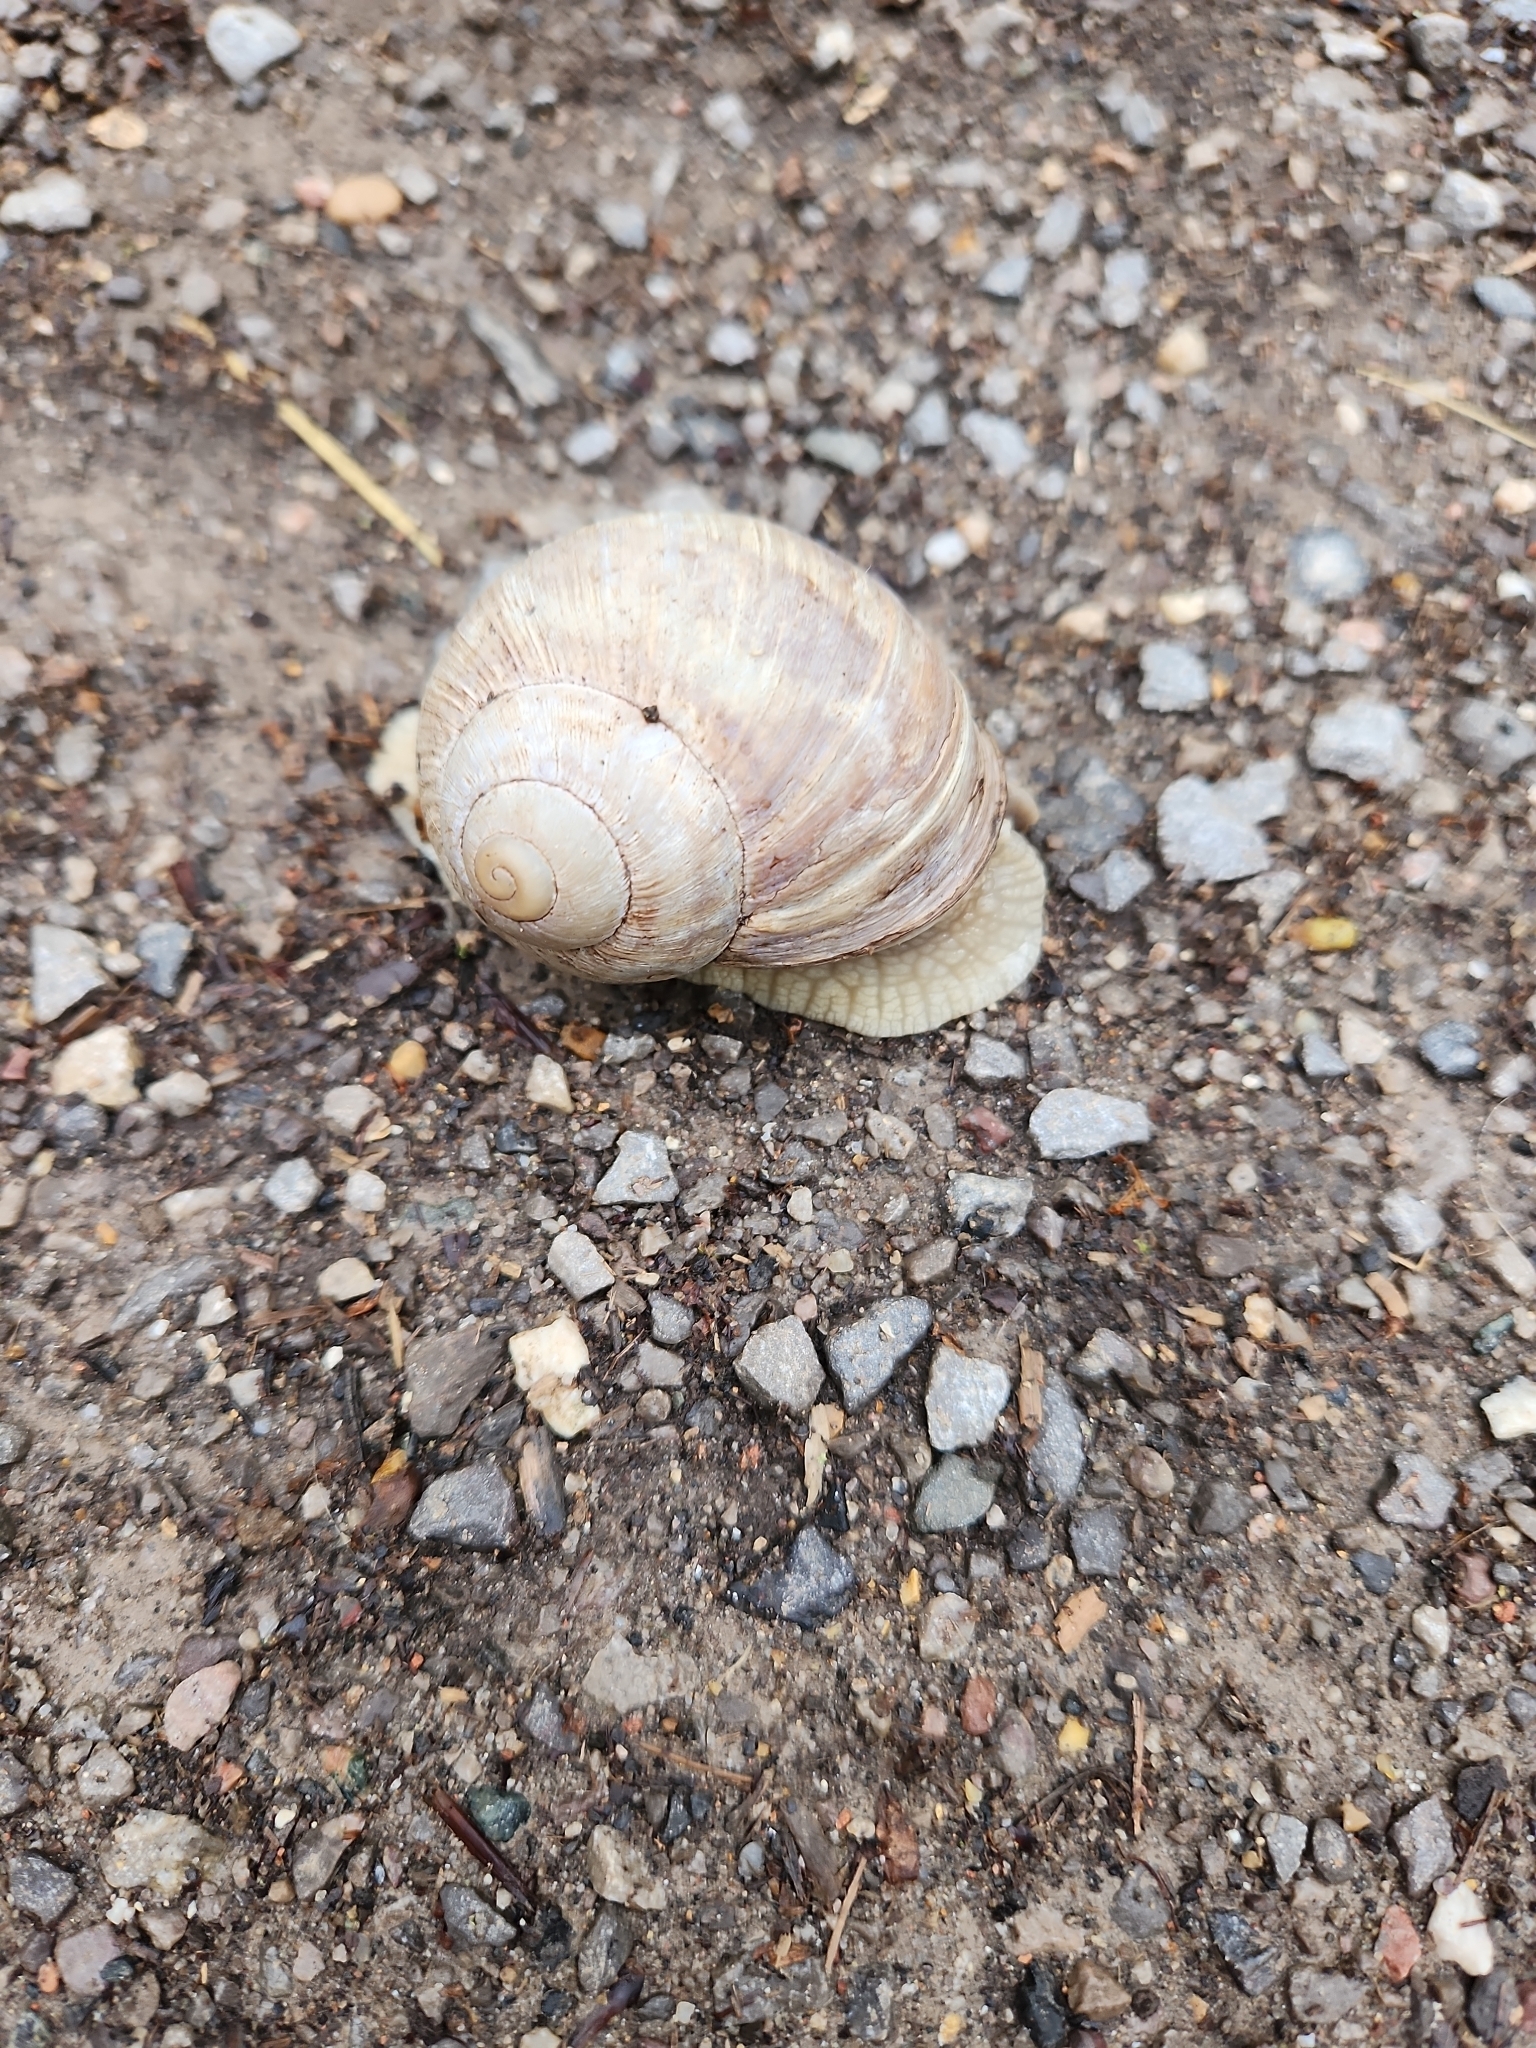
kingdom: Animalia
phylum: Mollusca
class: Gastropoda
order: Stylommatophora
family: Helicidae
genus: Helix
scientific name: Helix pomatia
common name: Roman snail
